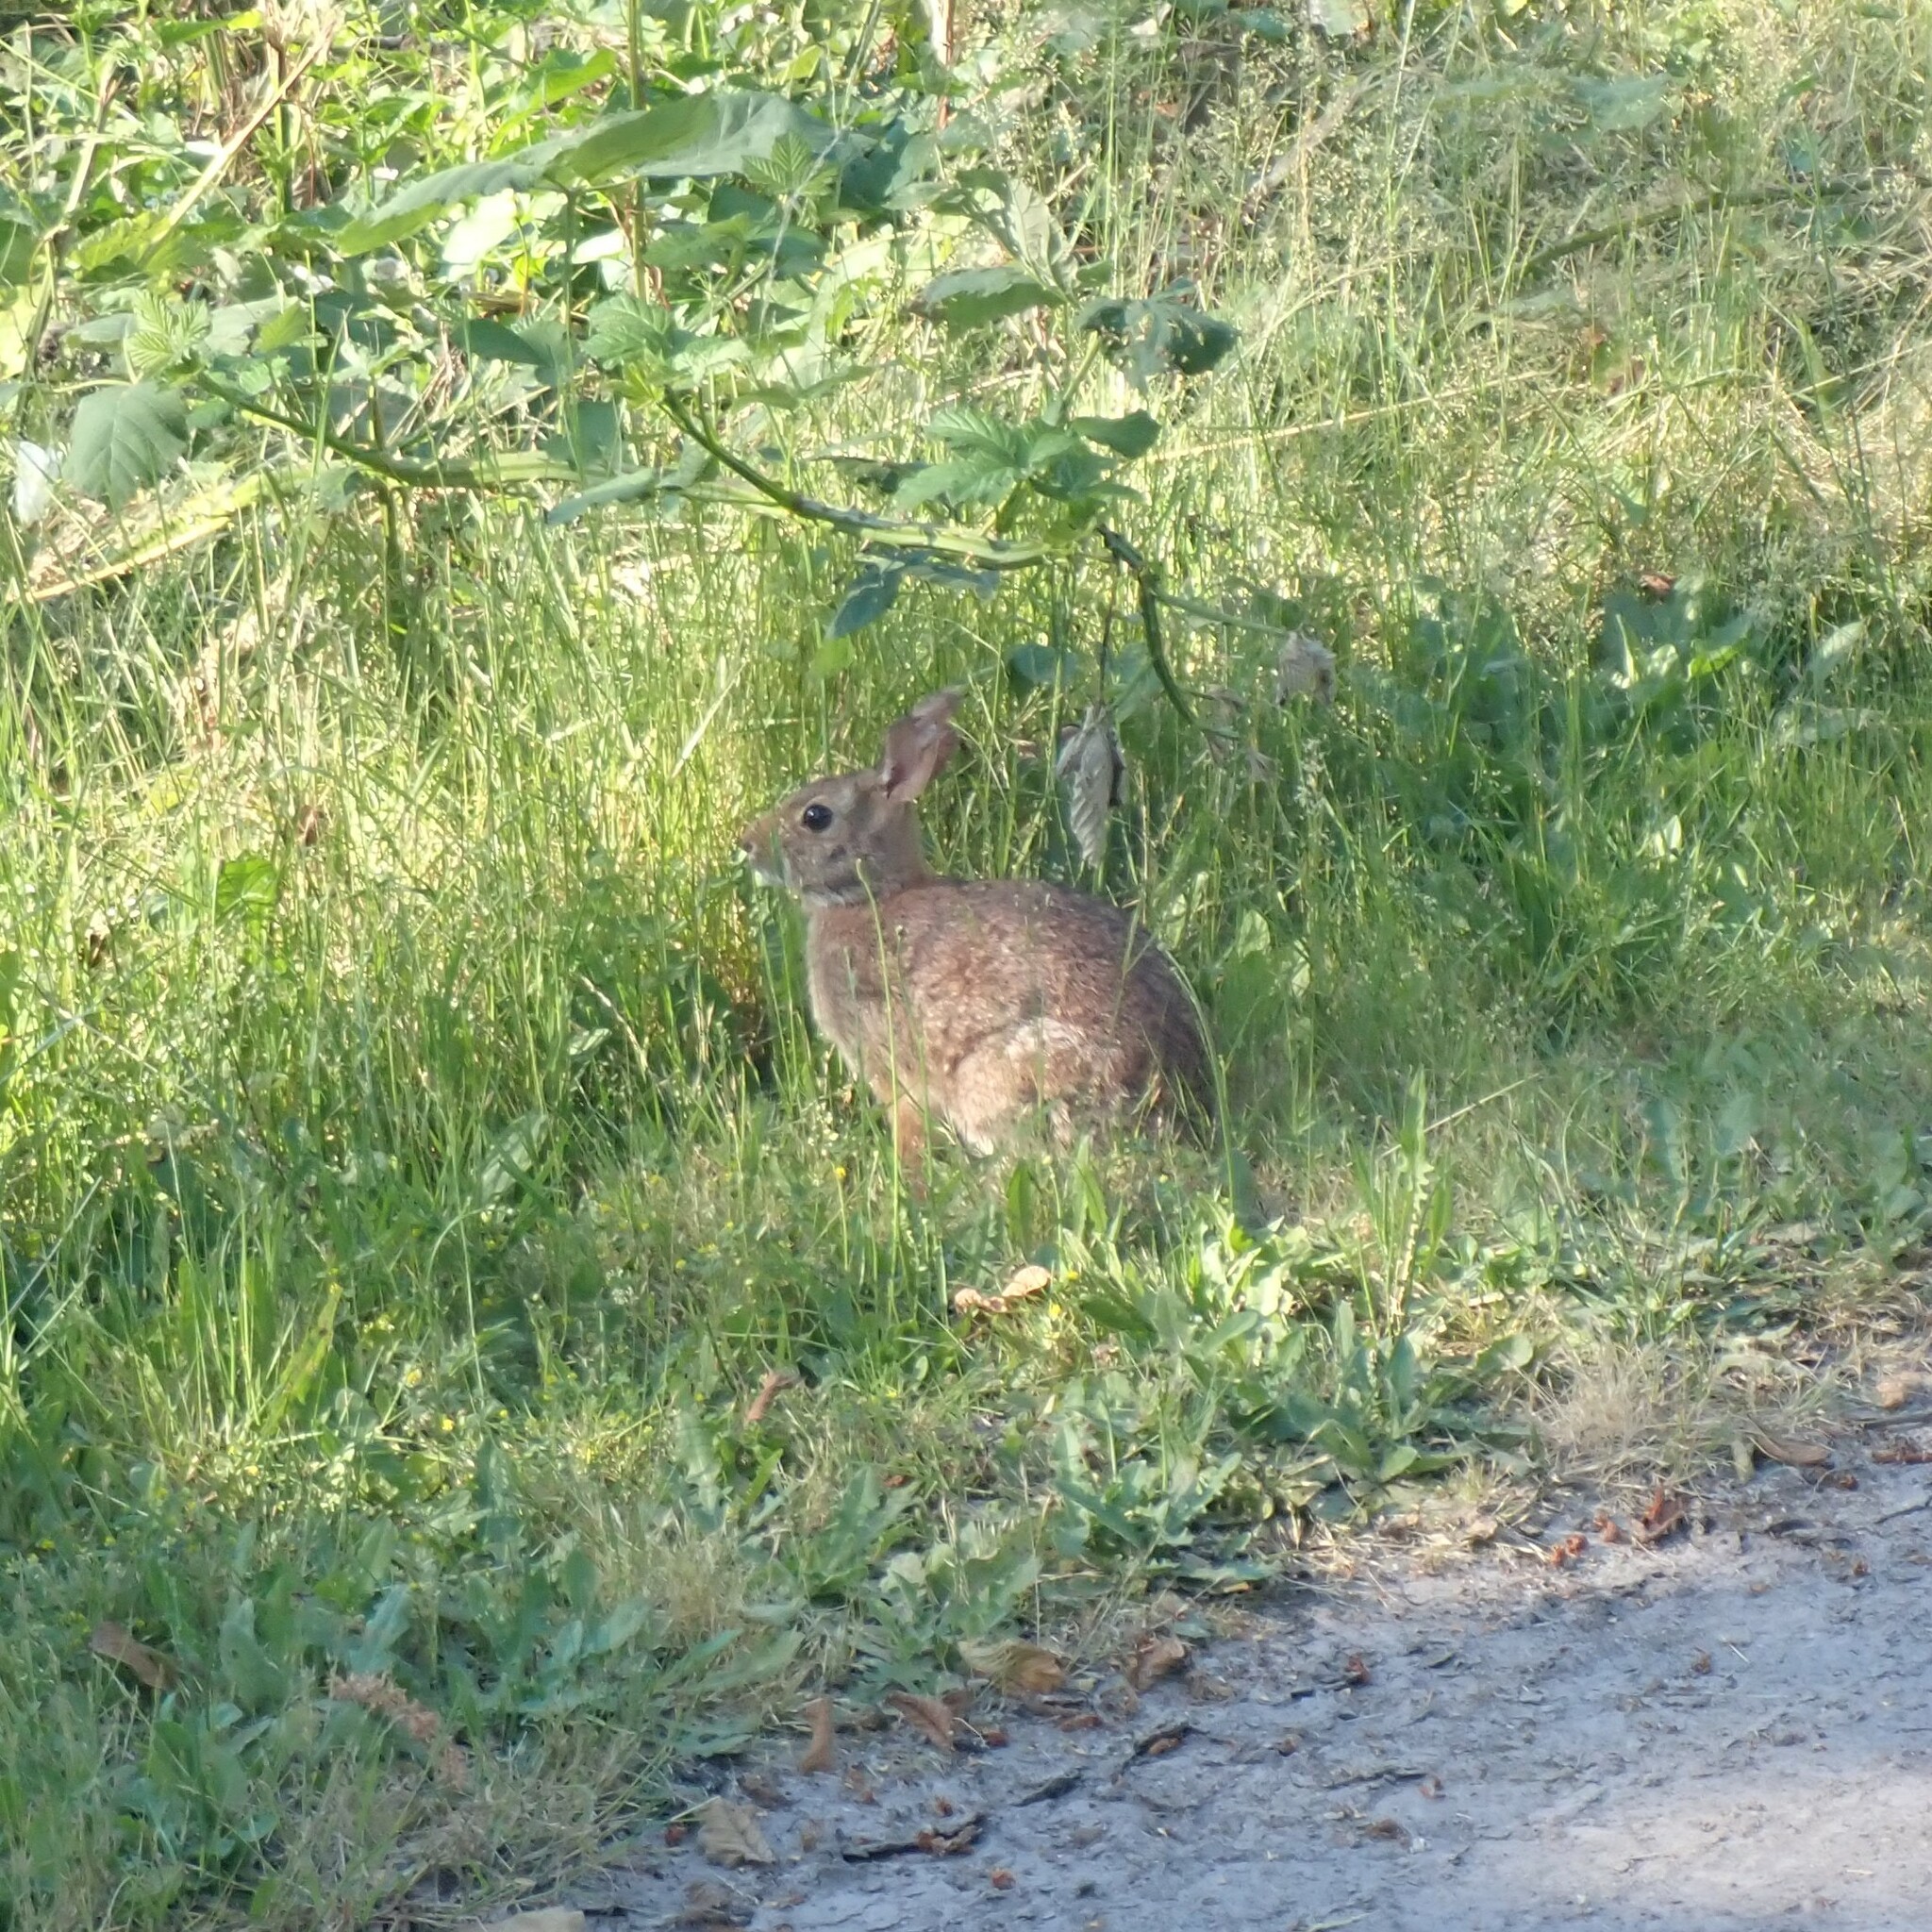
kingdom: Animalia
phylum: Chordata
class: Mammalia
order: Lagomorpha
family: Leporidae
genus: Sylvilagus
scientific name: Sylvilagus floridanus
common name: Eastern cottontail
